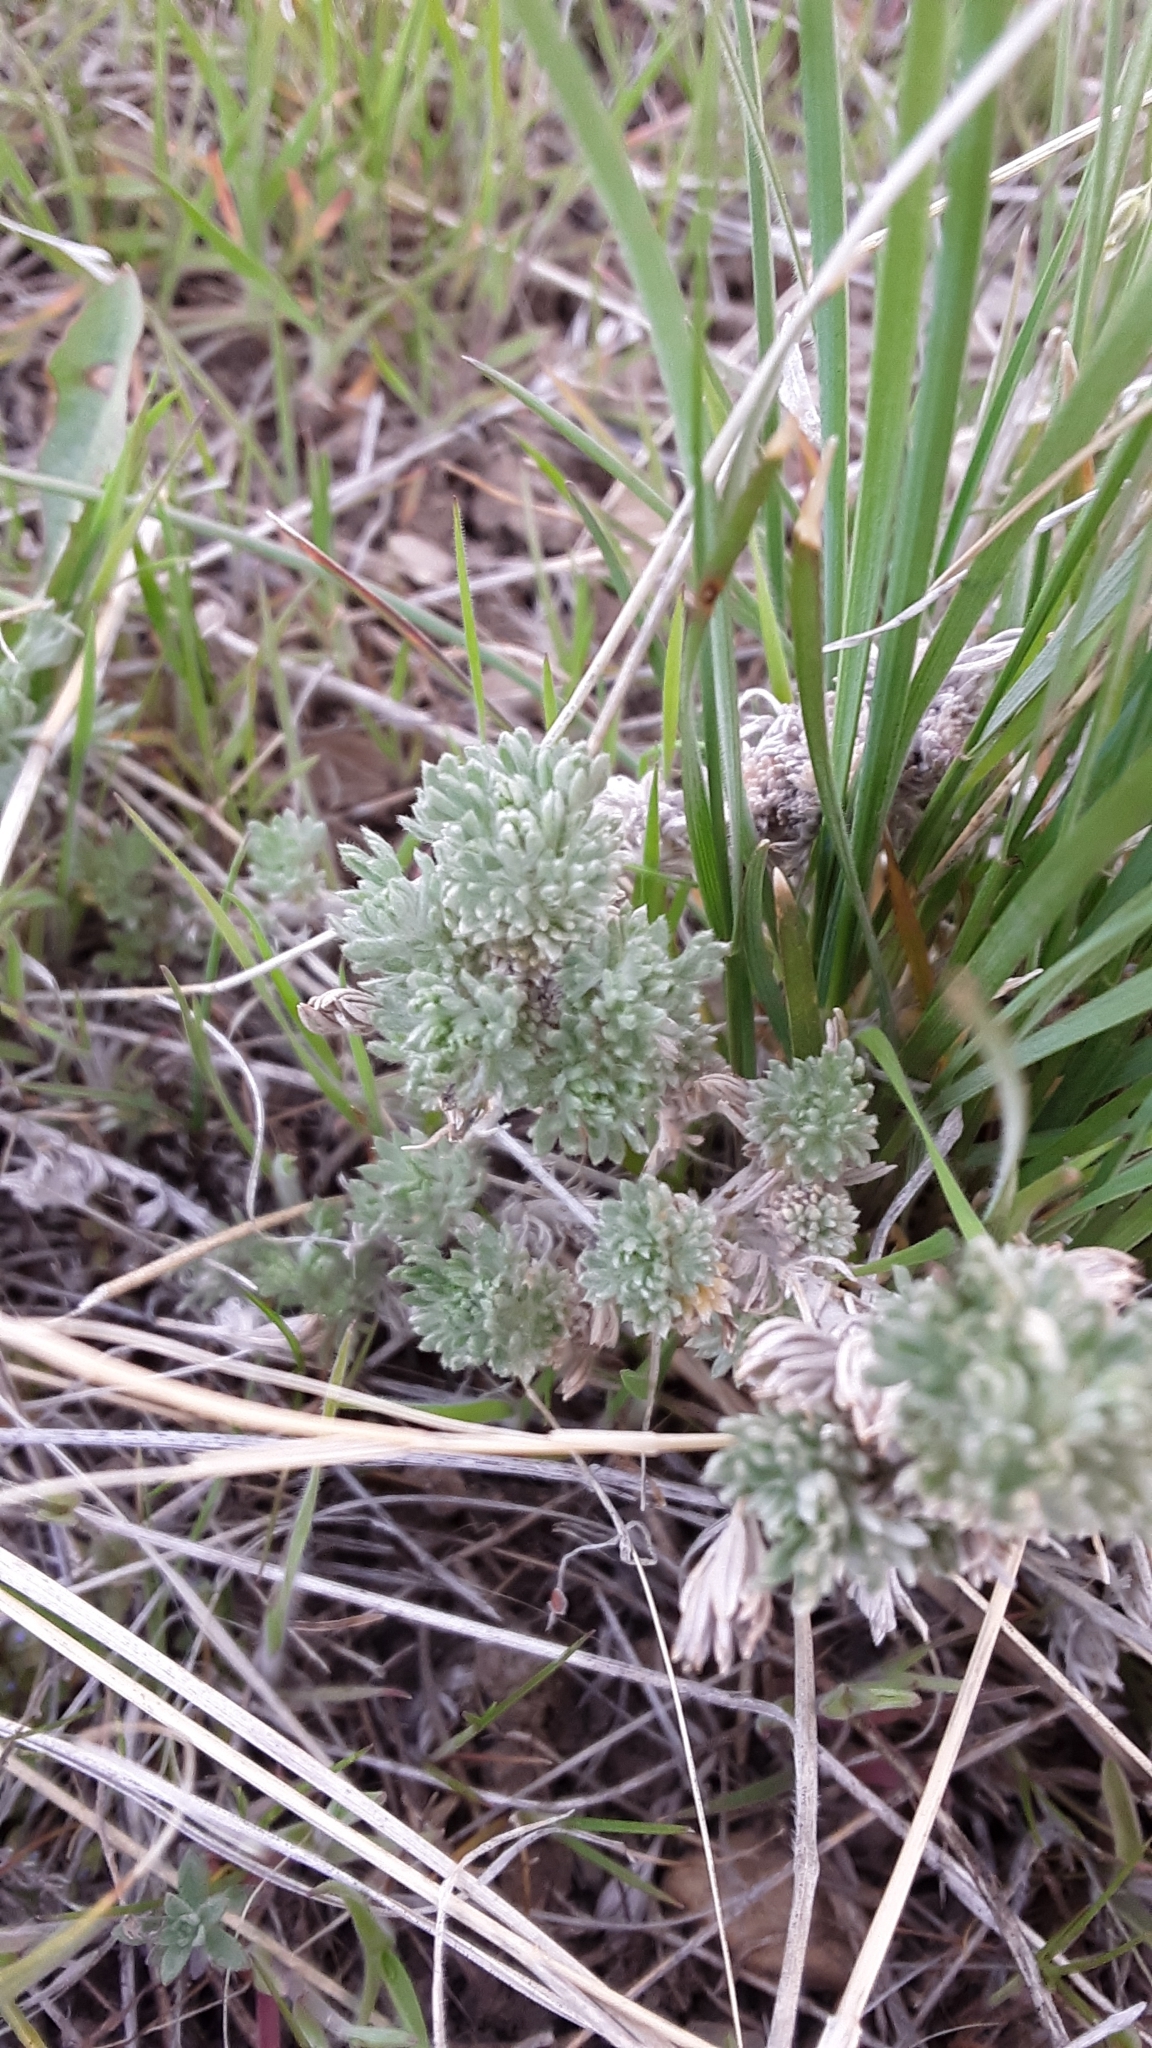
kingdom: Plantae
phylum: Tracheophyta
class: Magnoliopsida
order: Asterales
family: Asteraceae
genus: Artemisia
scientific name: Artemisia frigida
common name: Prairie sagewort
